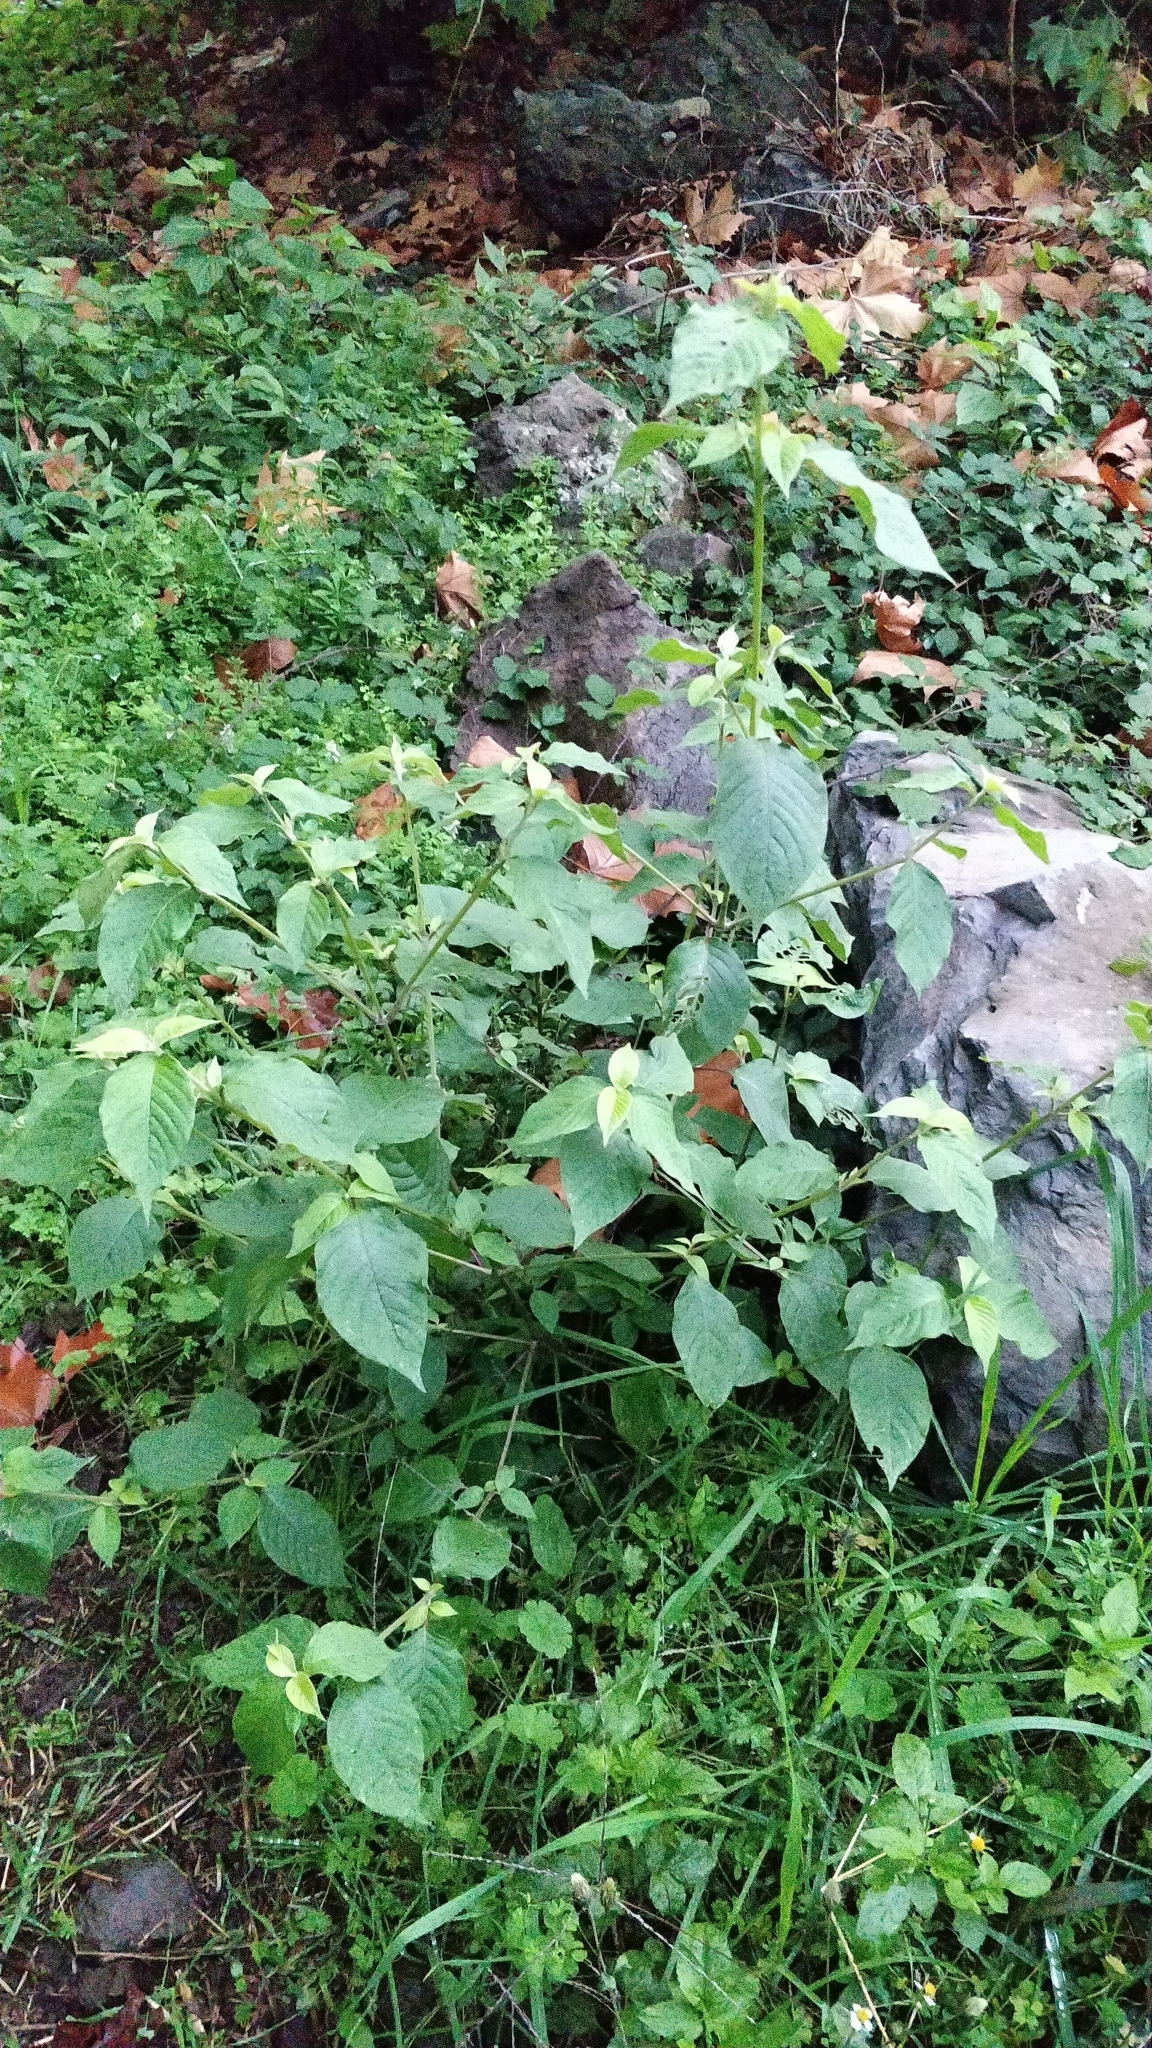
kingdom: Plantae
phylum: Tracheophyta
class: Magnoliopsida
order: Caryophyllales
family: Amaranthaceae
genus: Achyranthes
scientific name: Achyranthes aspera
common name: Devil's horsewhip
